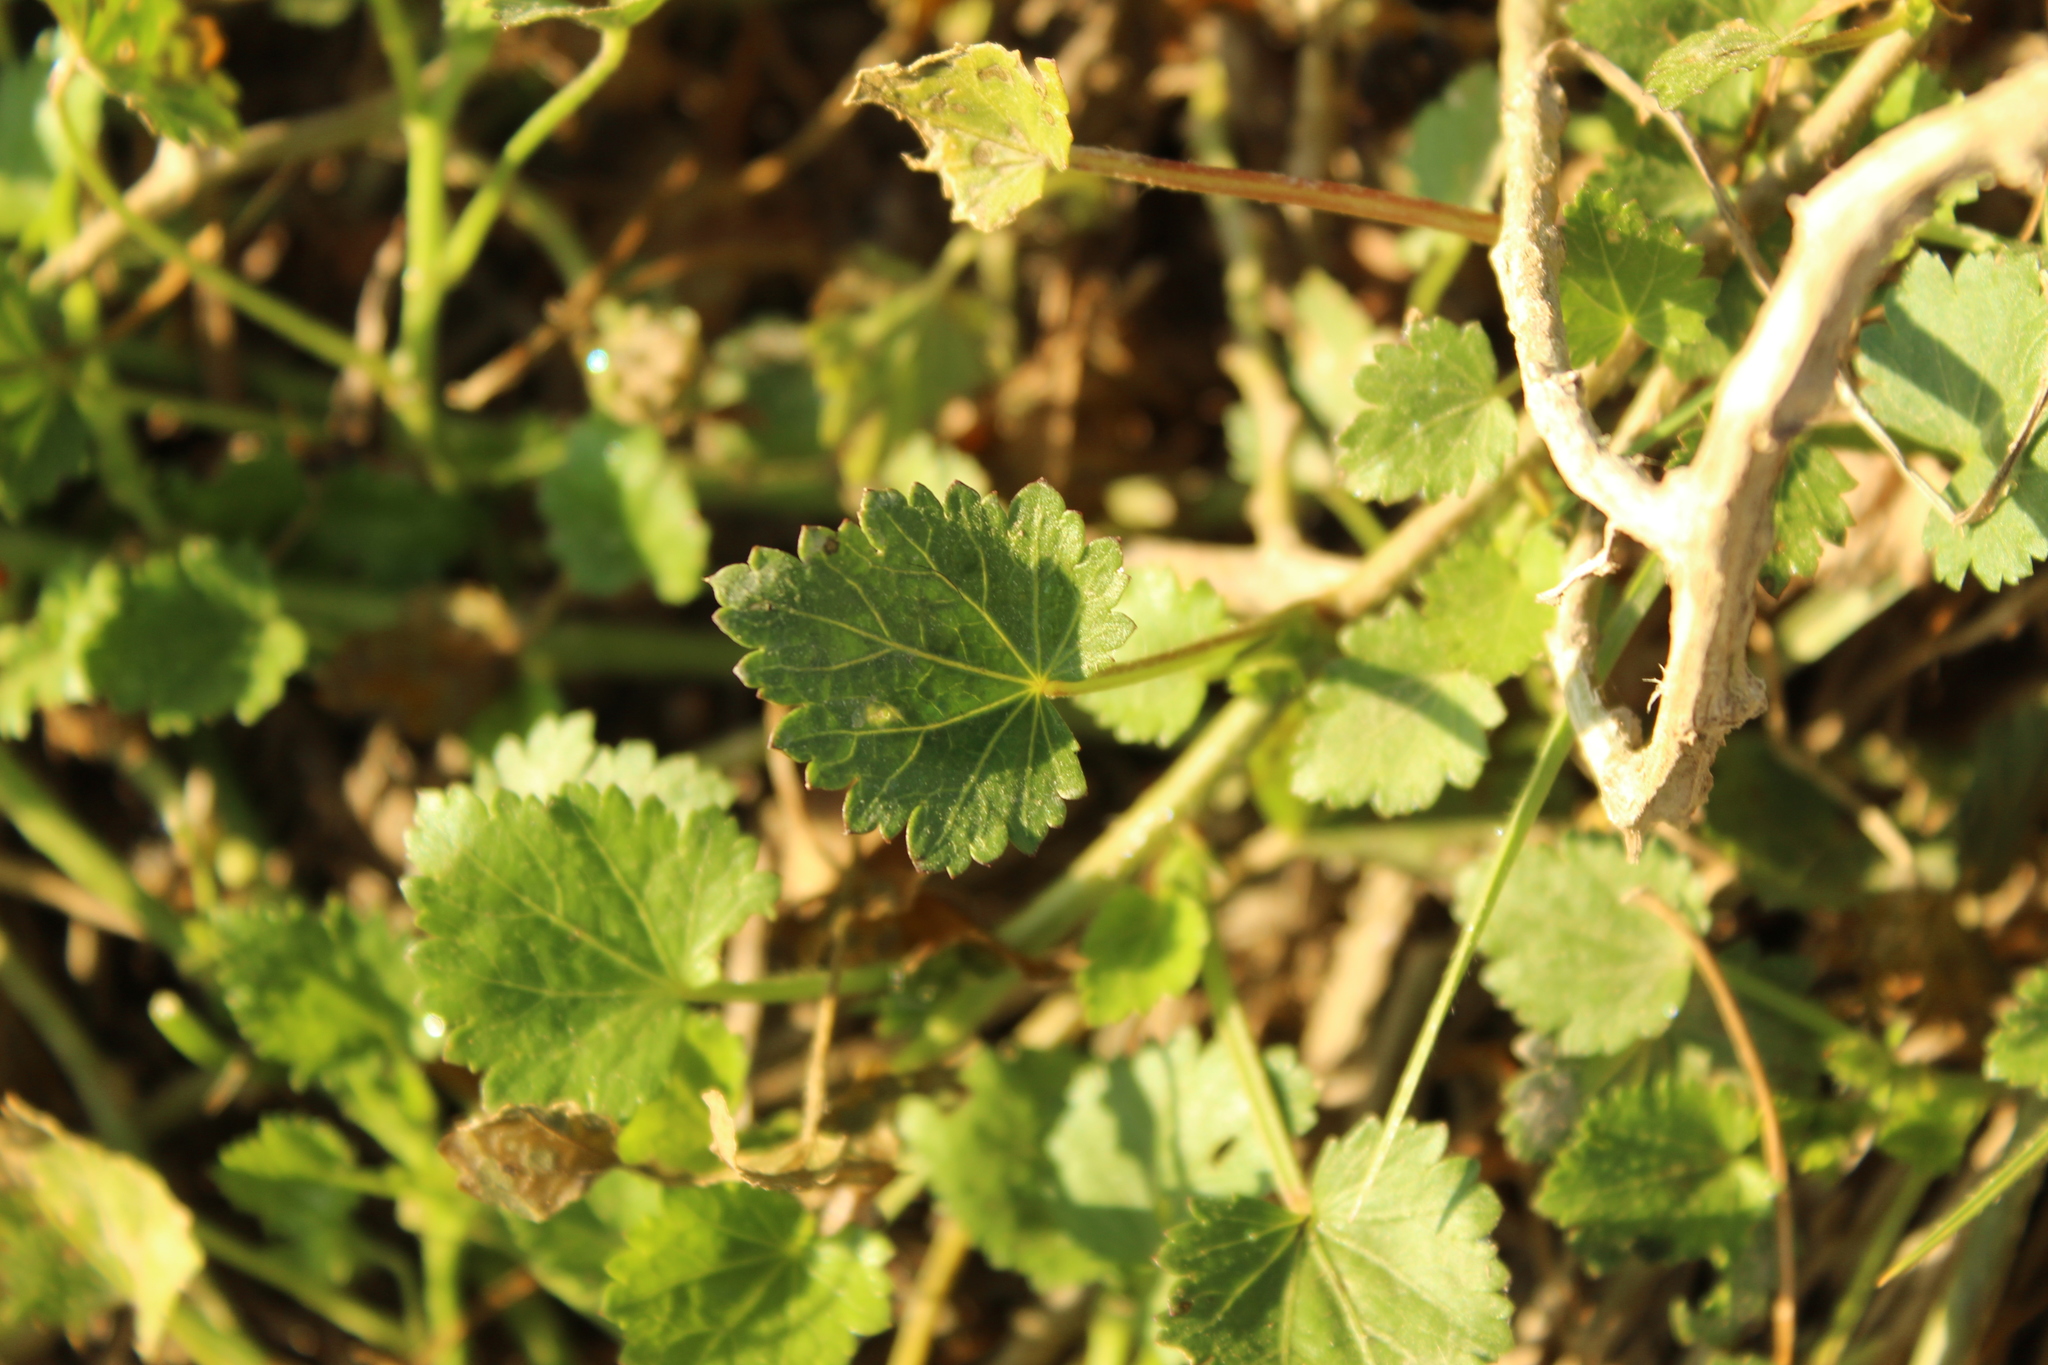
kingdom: Plantae
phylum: Tracheophyta
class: Magnoliopsida
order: Malvales
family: Malvaceae
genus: Modiola
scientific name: Modiola caroliniana
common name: Carolina bristlemallow
